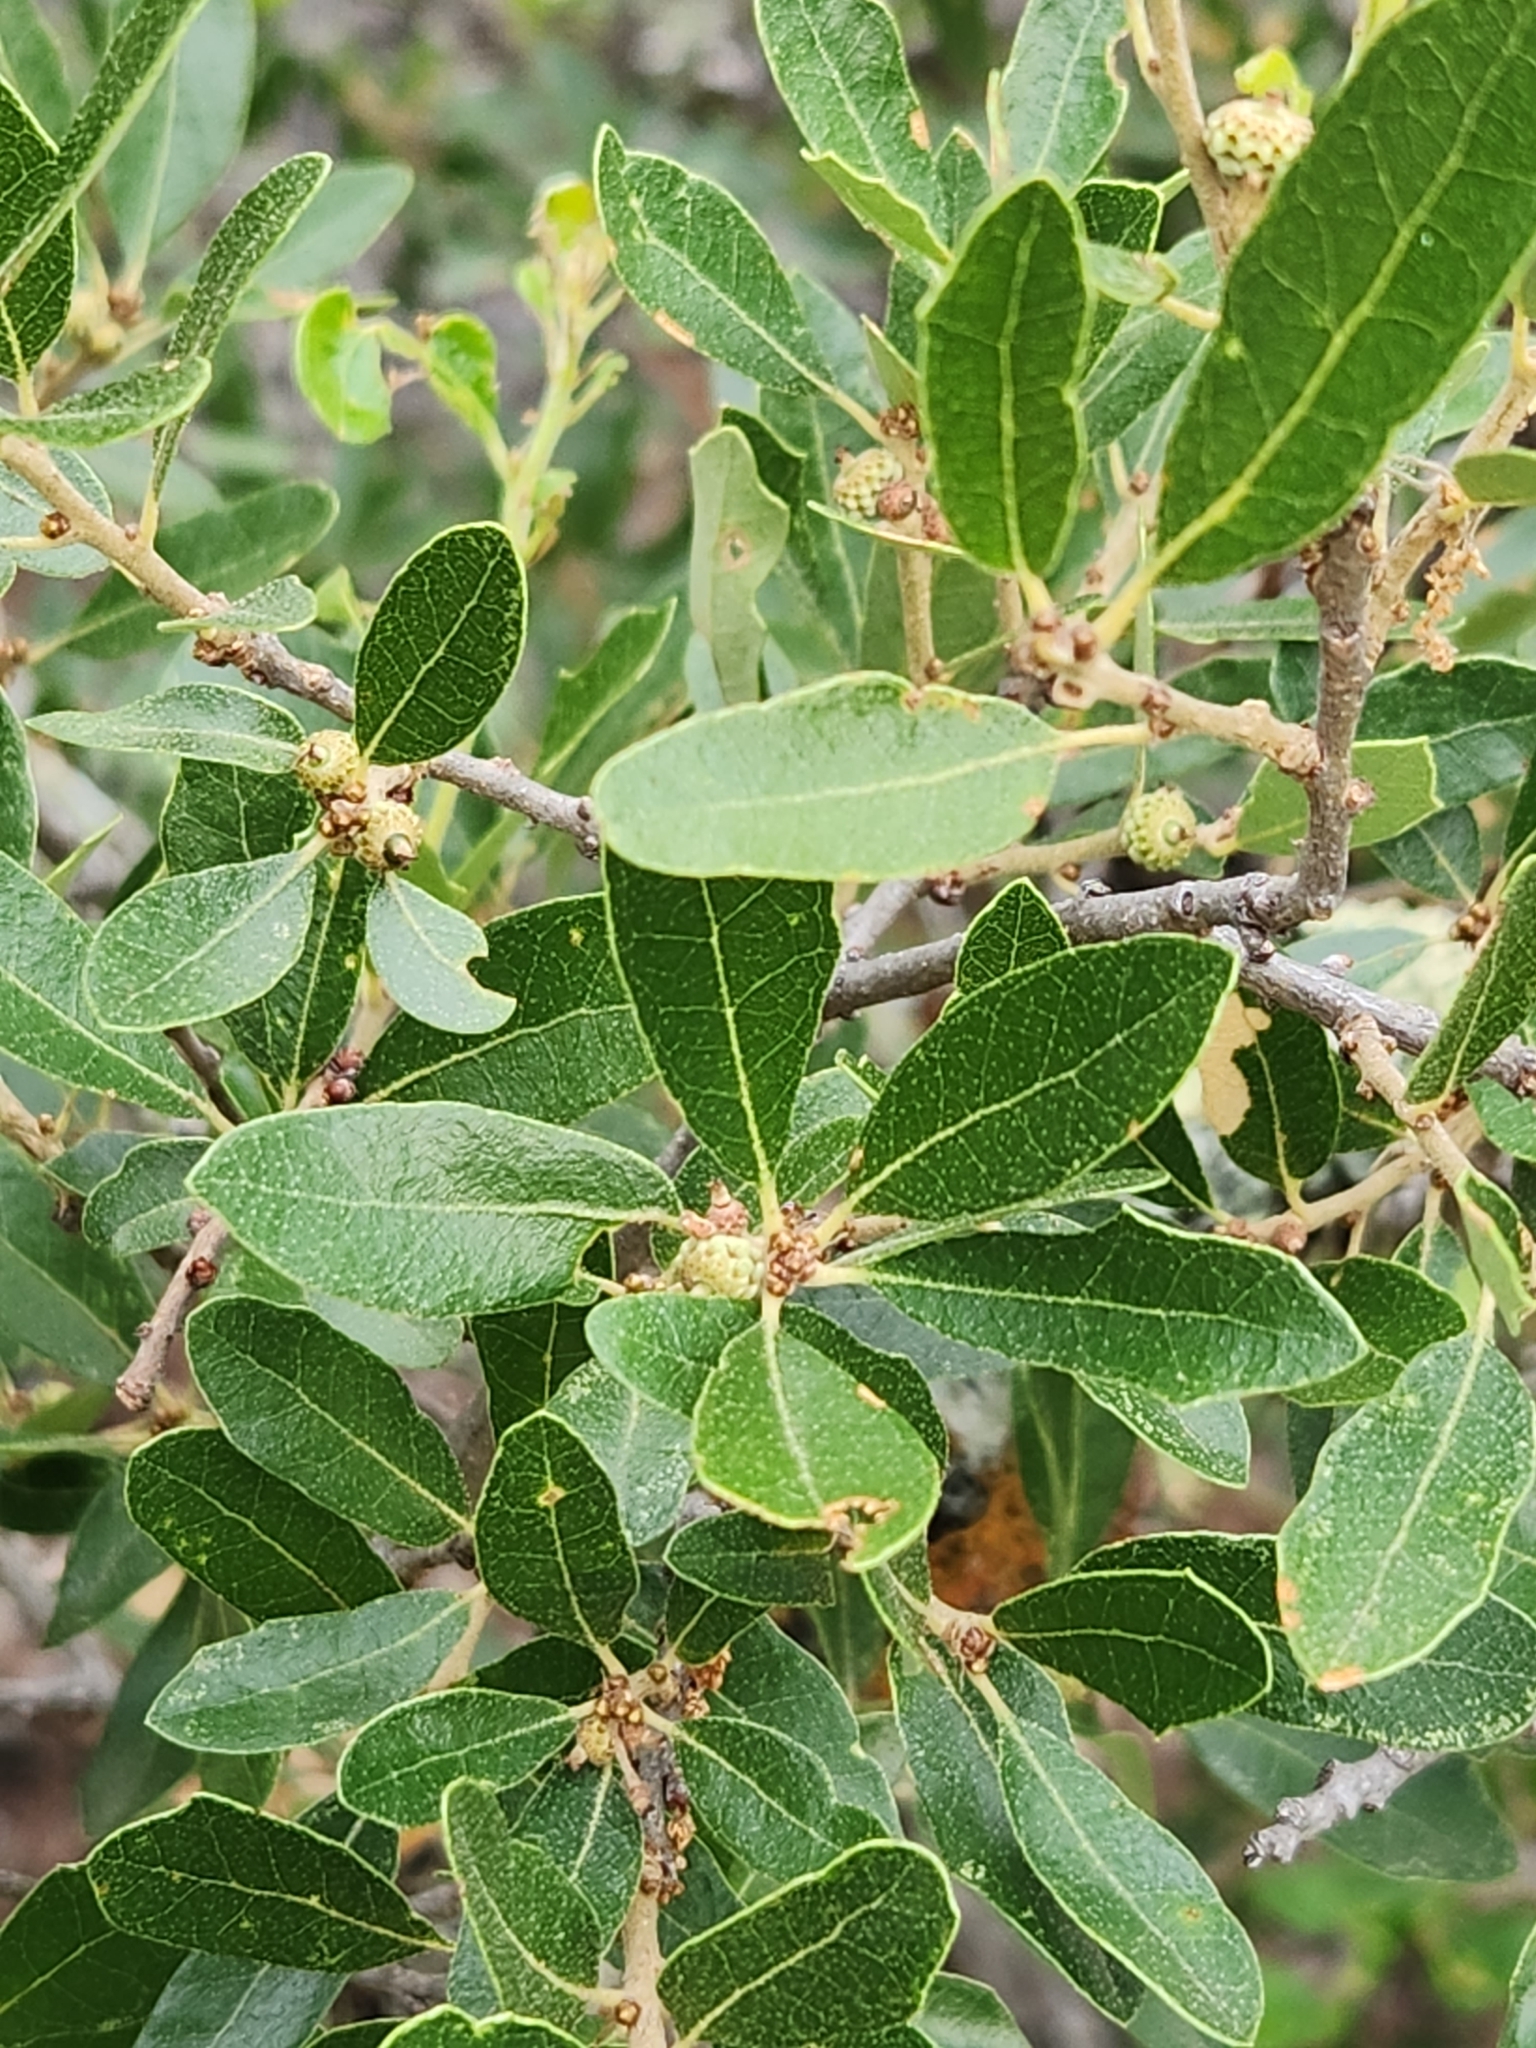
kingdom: Plantae
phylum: Tracheophyta
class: Magnoliopsida
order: Fagales
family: Fagaceae
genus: Quercus
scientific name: Quercus vaseyana
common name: Sandpaper oak
